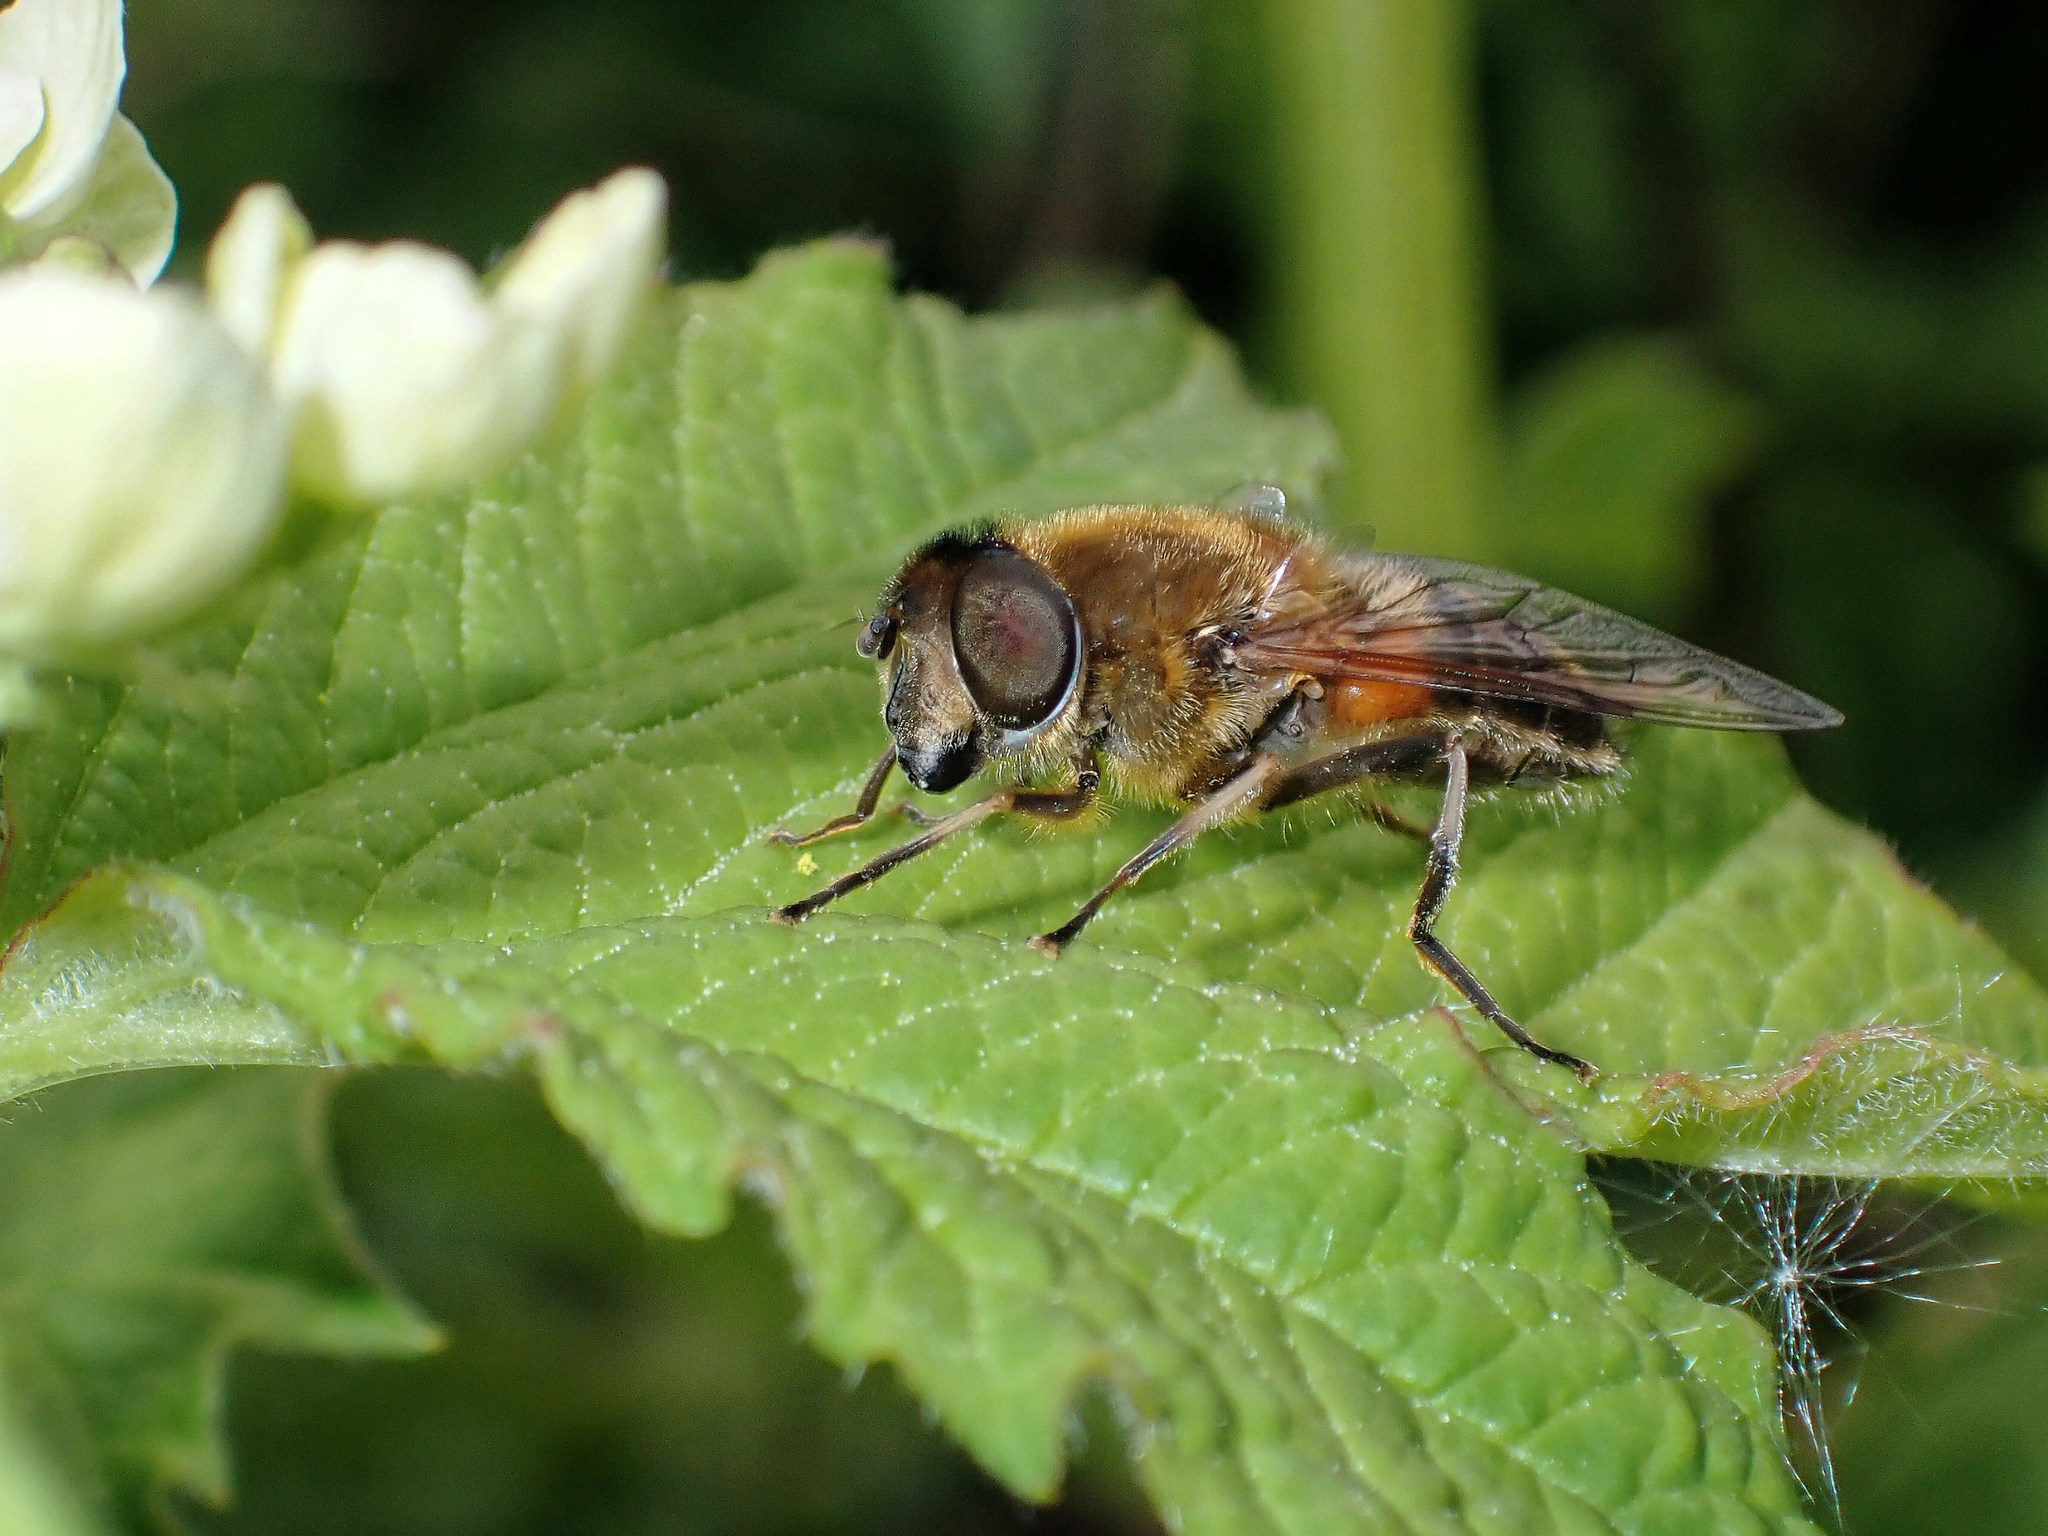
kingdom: Animalia
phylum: Arthropoda
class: Insecta
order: Diptera
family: Syrphidae
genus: Eristalis
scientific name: Eristalis pertinax
